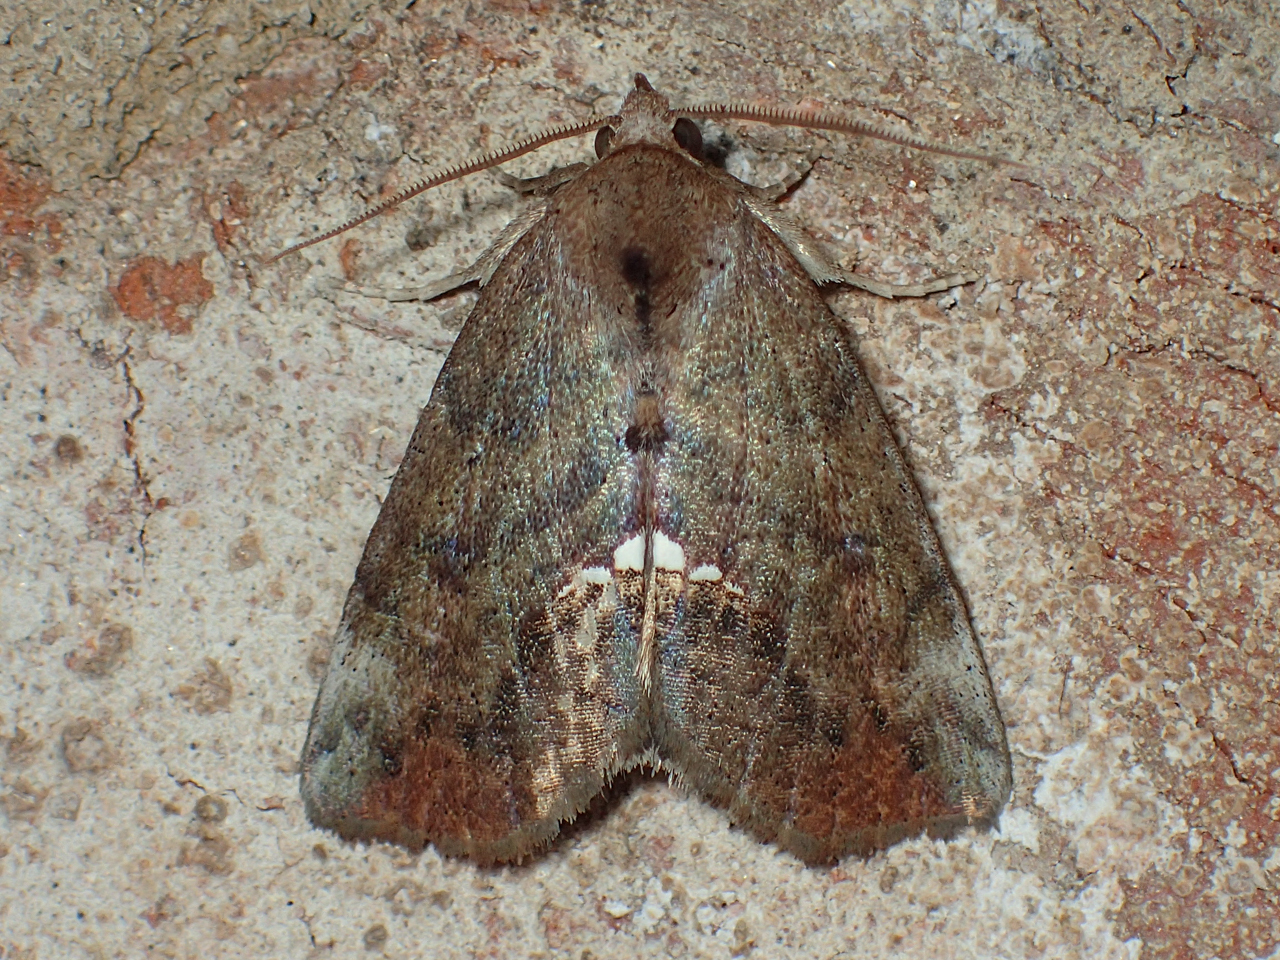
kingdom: Animalia
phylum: Arthropoda
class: Insecta
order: Lepidoptera
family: Erebidae
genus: Hypsoropha
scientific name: Hypsoropha hormos
